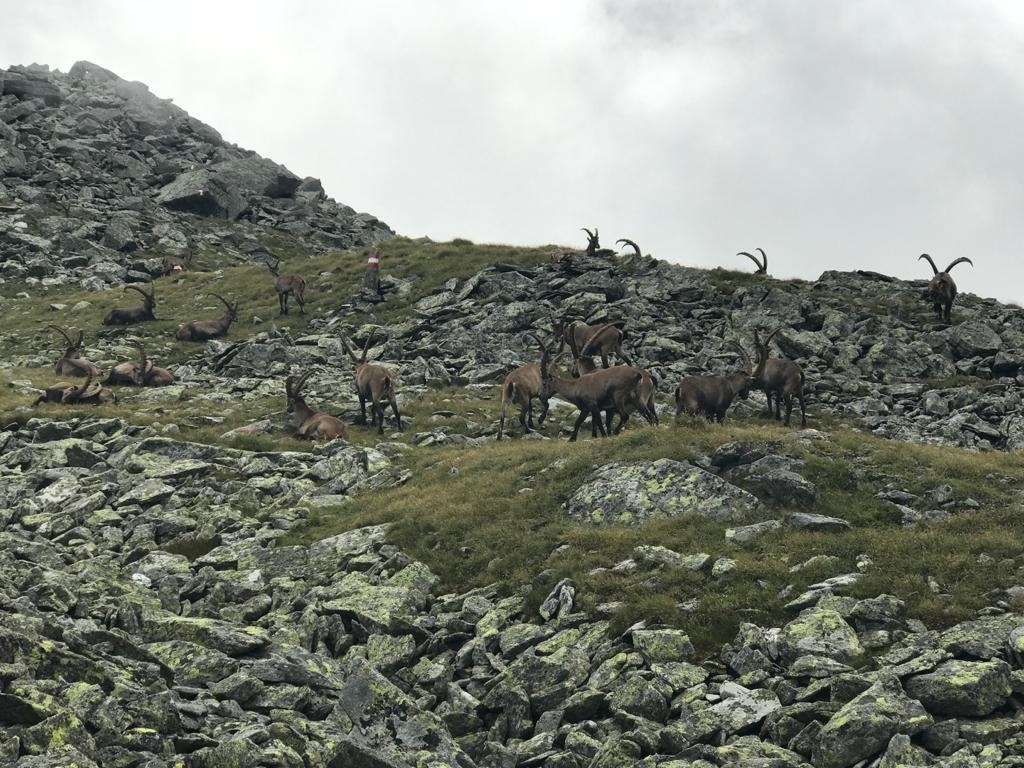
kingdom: Animalia
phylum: Chordata
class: Mammalia
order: Artiodactyla
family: Bovidae
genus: Capra
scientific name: Capra ibex
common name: Alpine ibex
